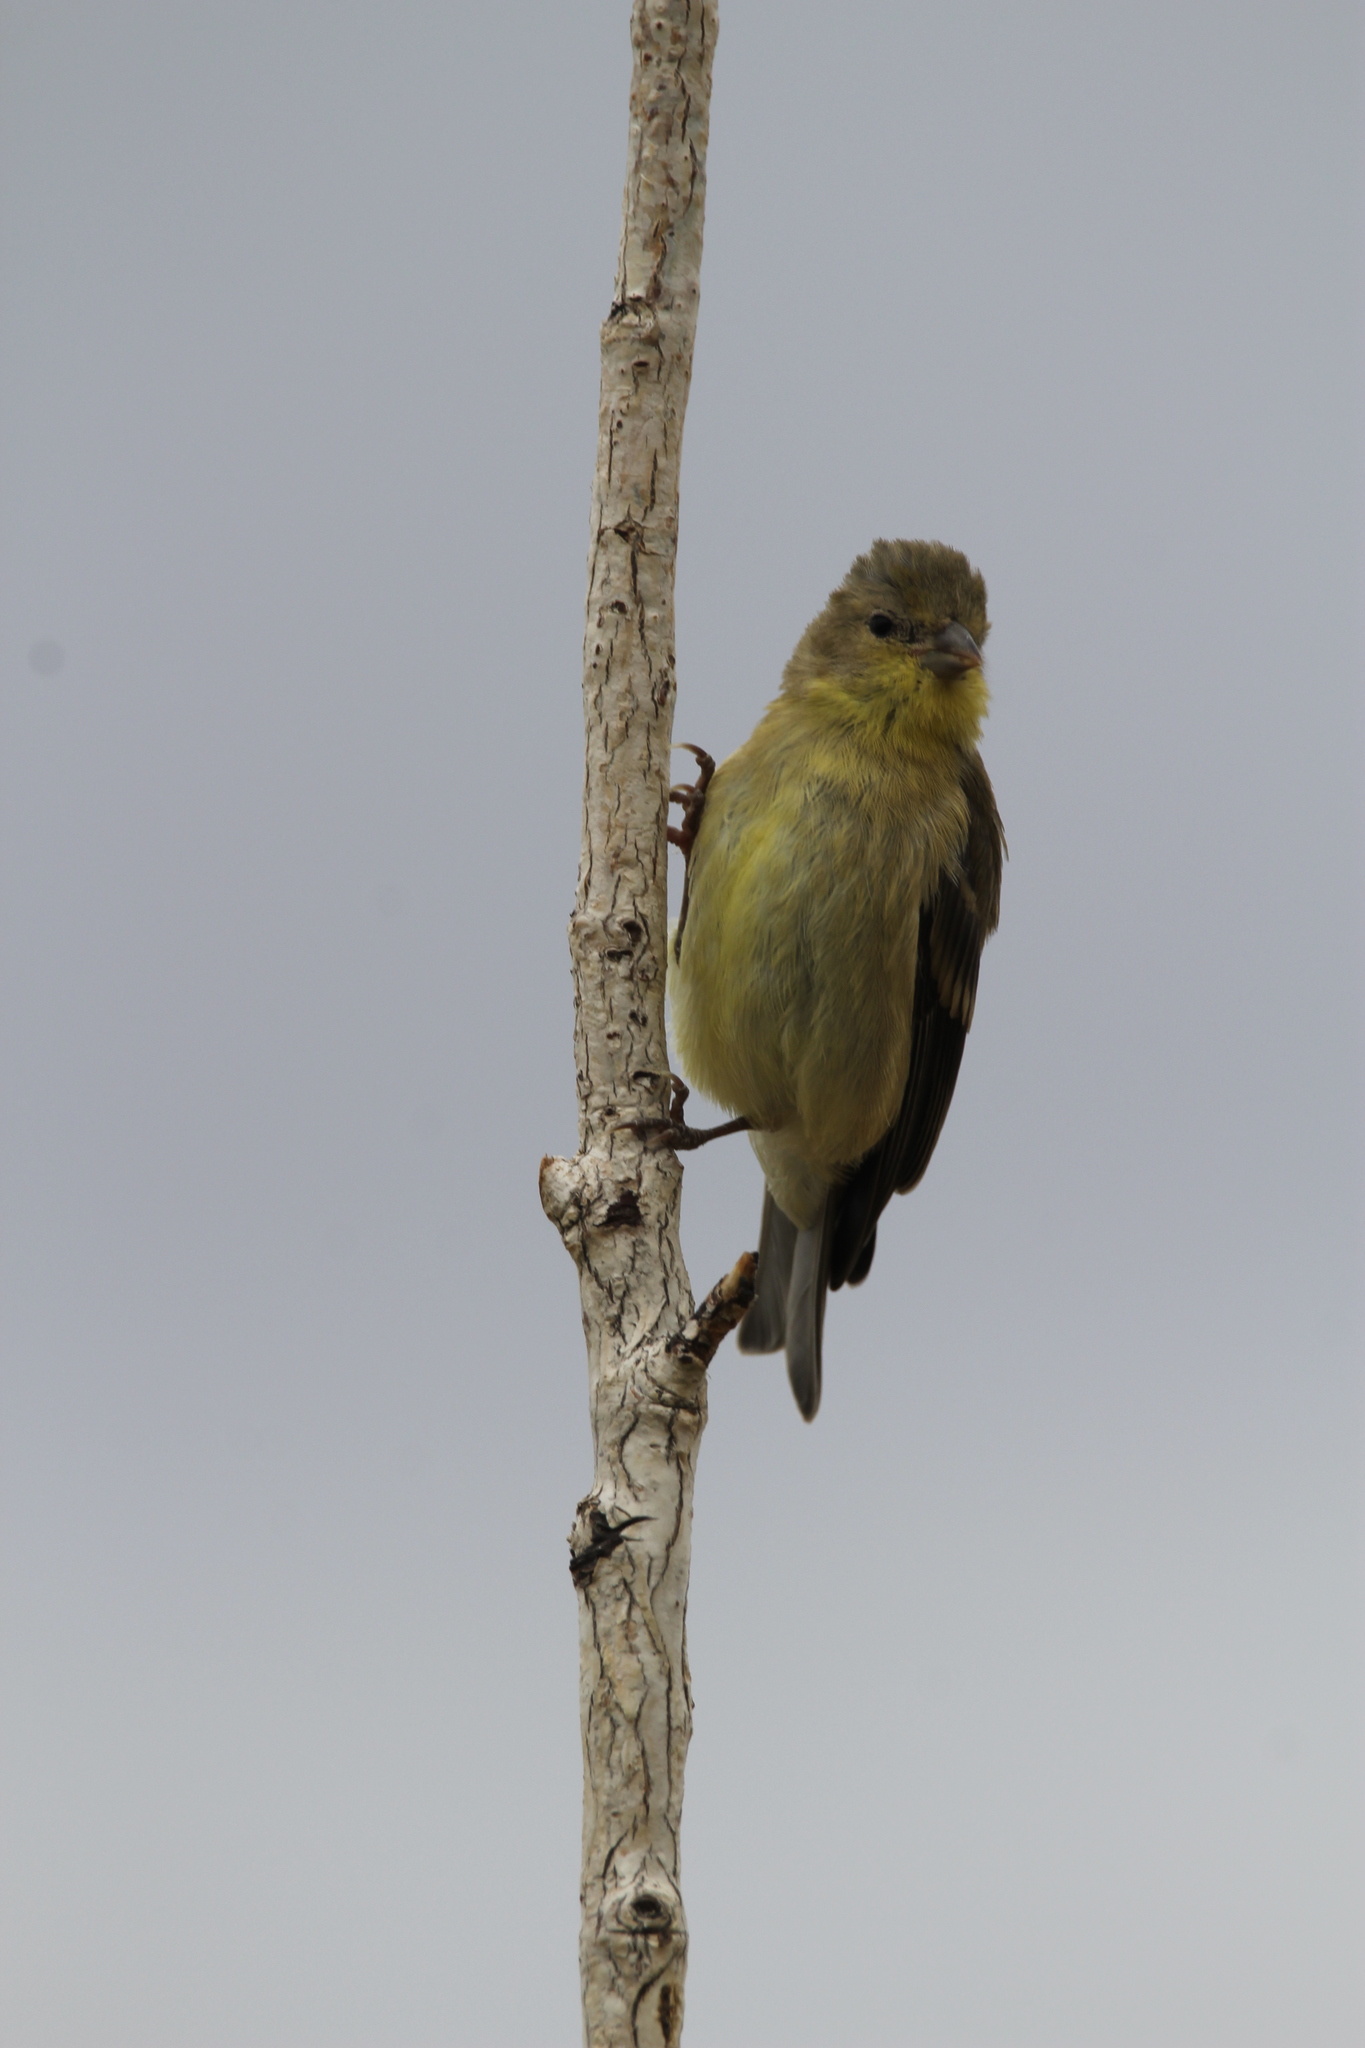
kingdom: Animalia
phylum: Chordata
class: Aves
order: Passeriformes
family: Fringillidae
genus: Spinus
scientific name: Spinus psaltria
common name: Lesser goldfinch
